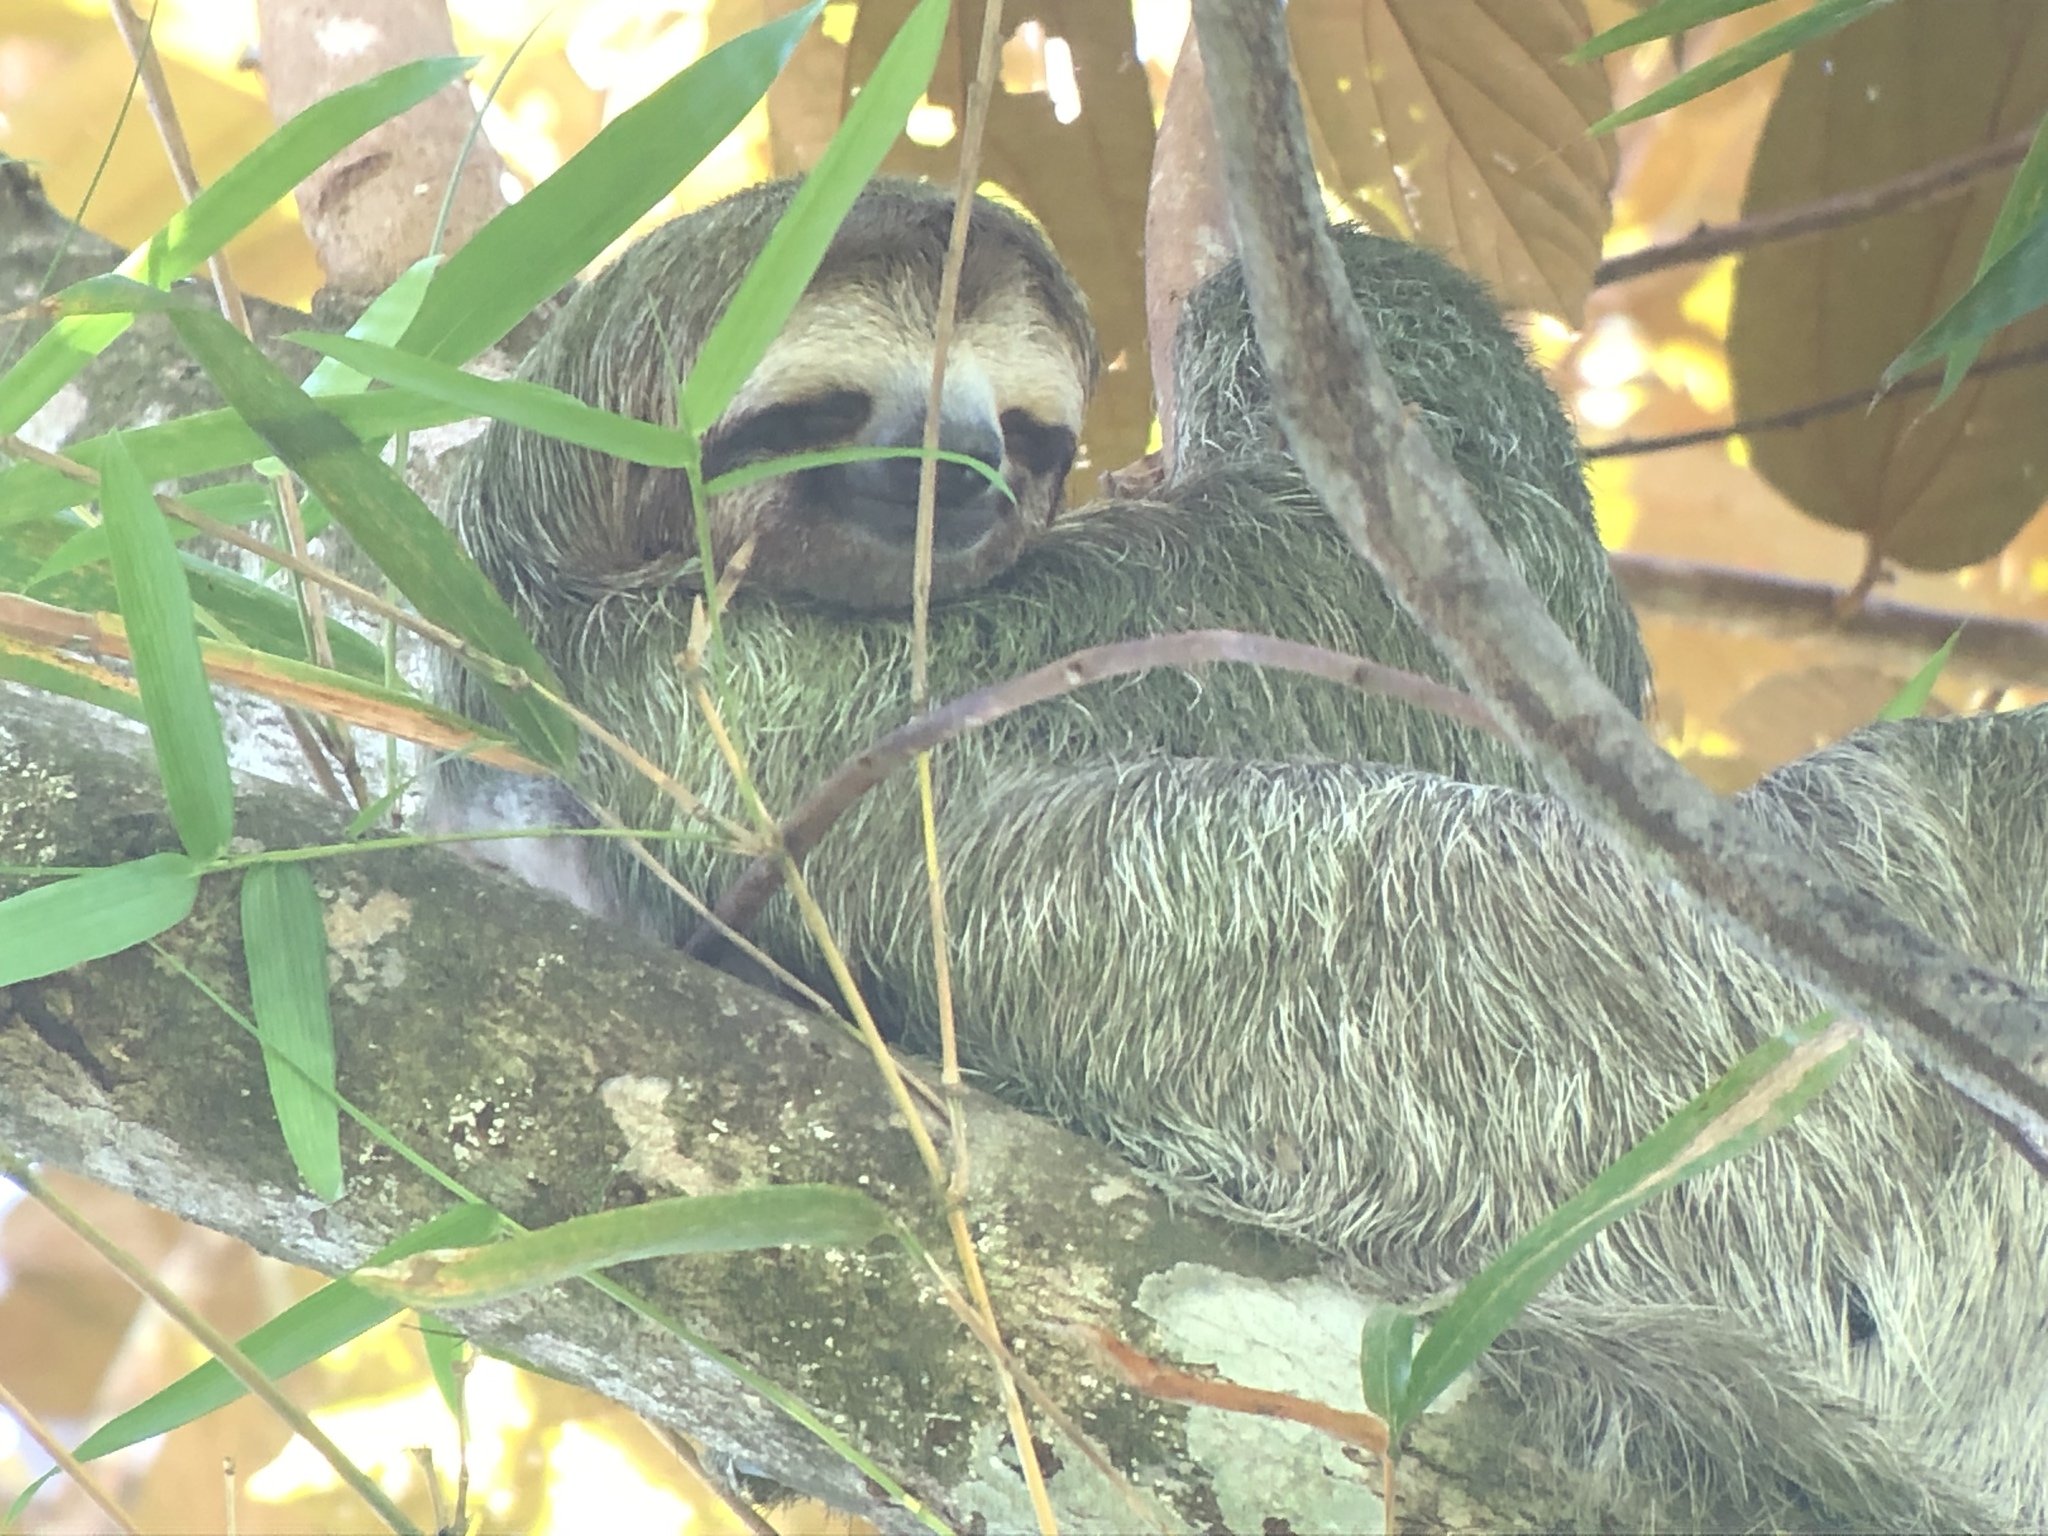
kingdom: Animalia
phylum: Chordata
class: Mammalia
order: Pilosa
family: Bradypodidae
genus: Bradypus
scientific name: Bradypus variegatus
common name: Brown-throated three-toed sloth
